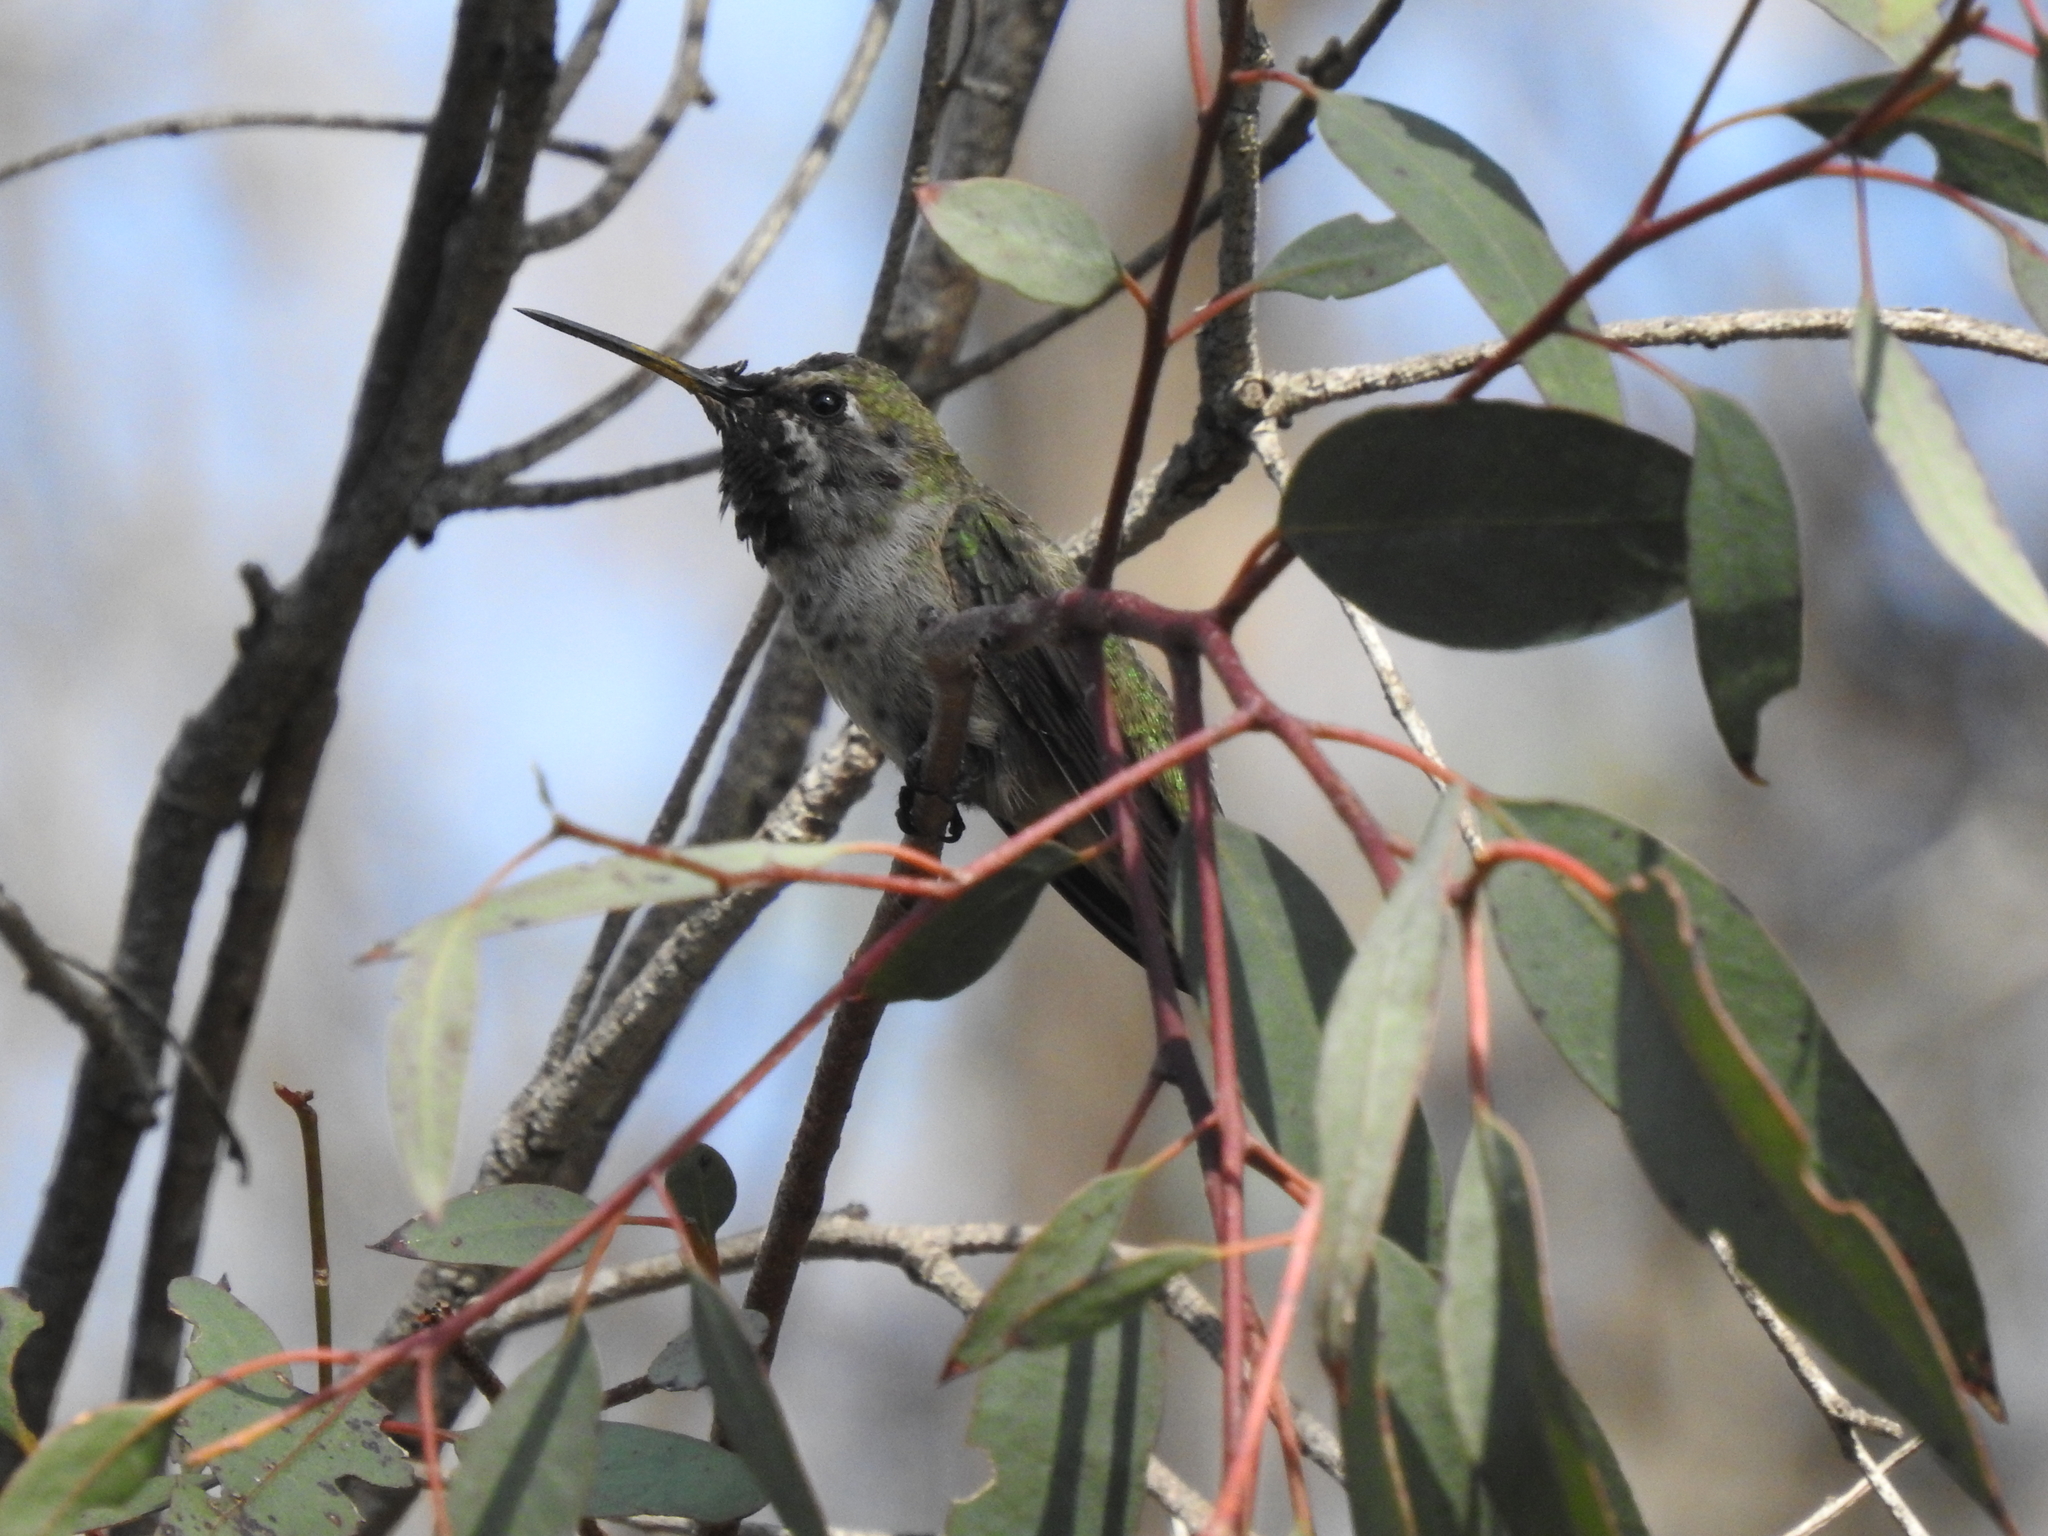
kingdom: Animalia
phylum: Chordata
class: Aves
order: Apodiformes
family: Trochilidae
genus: Calypte
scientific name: Calypte anna
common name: Anna's hummingbird
